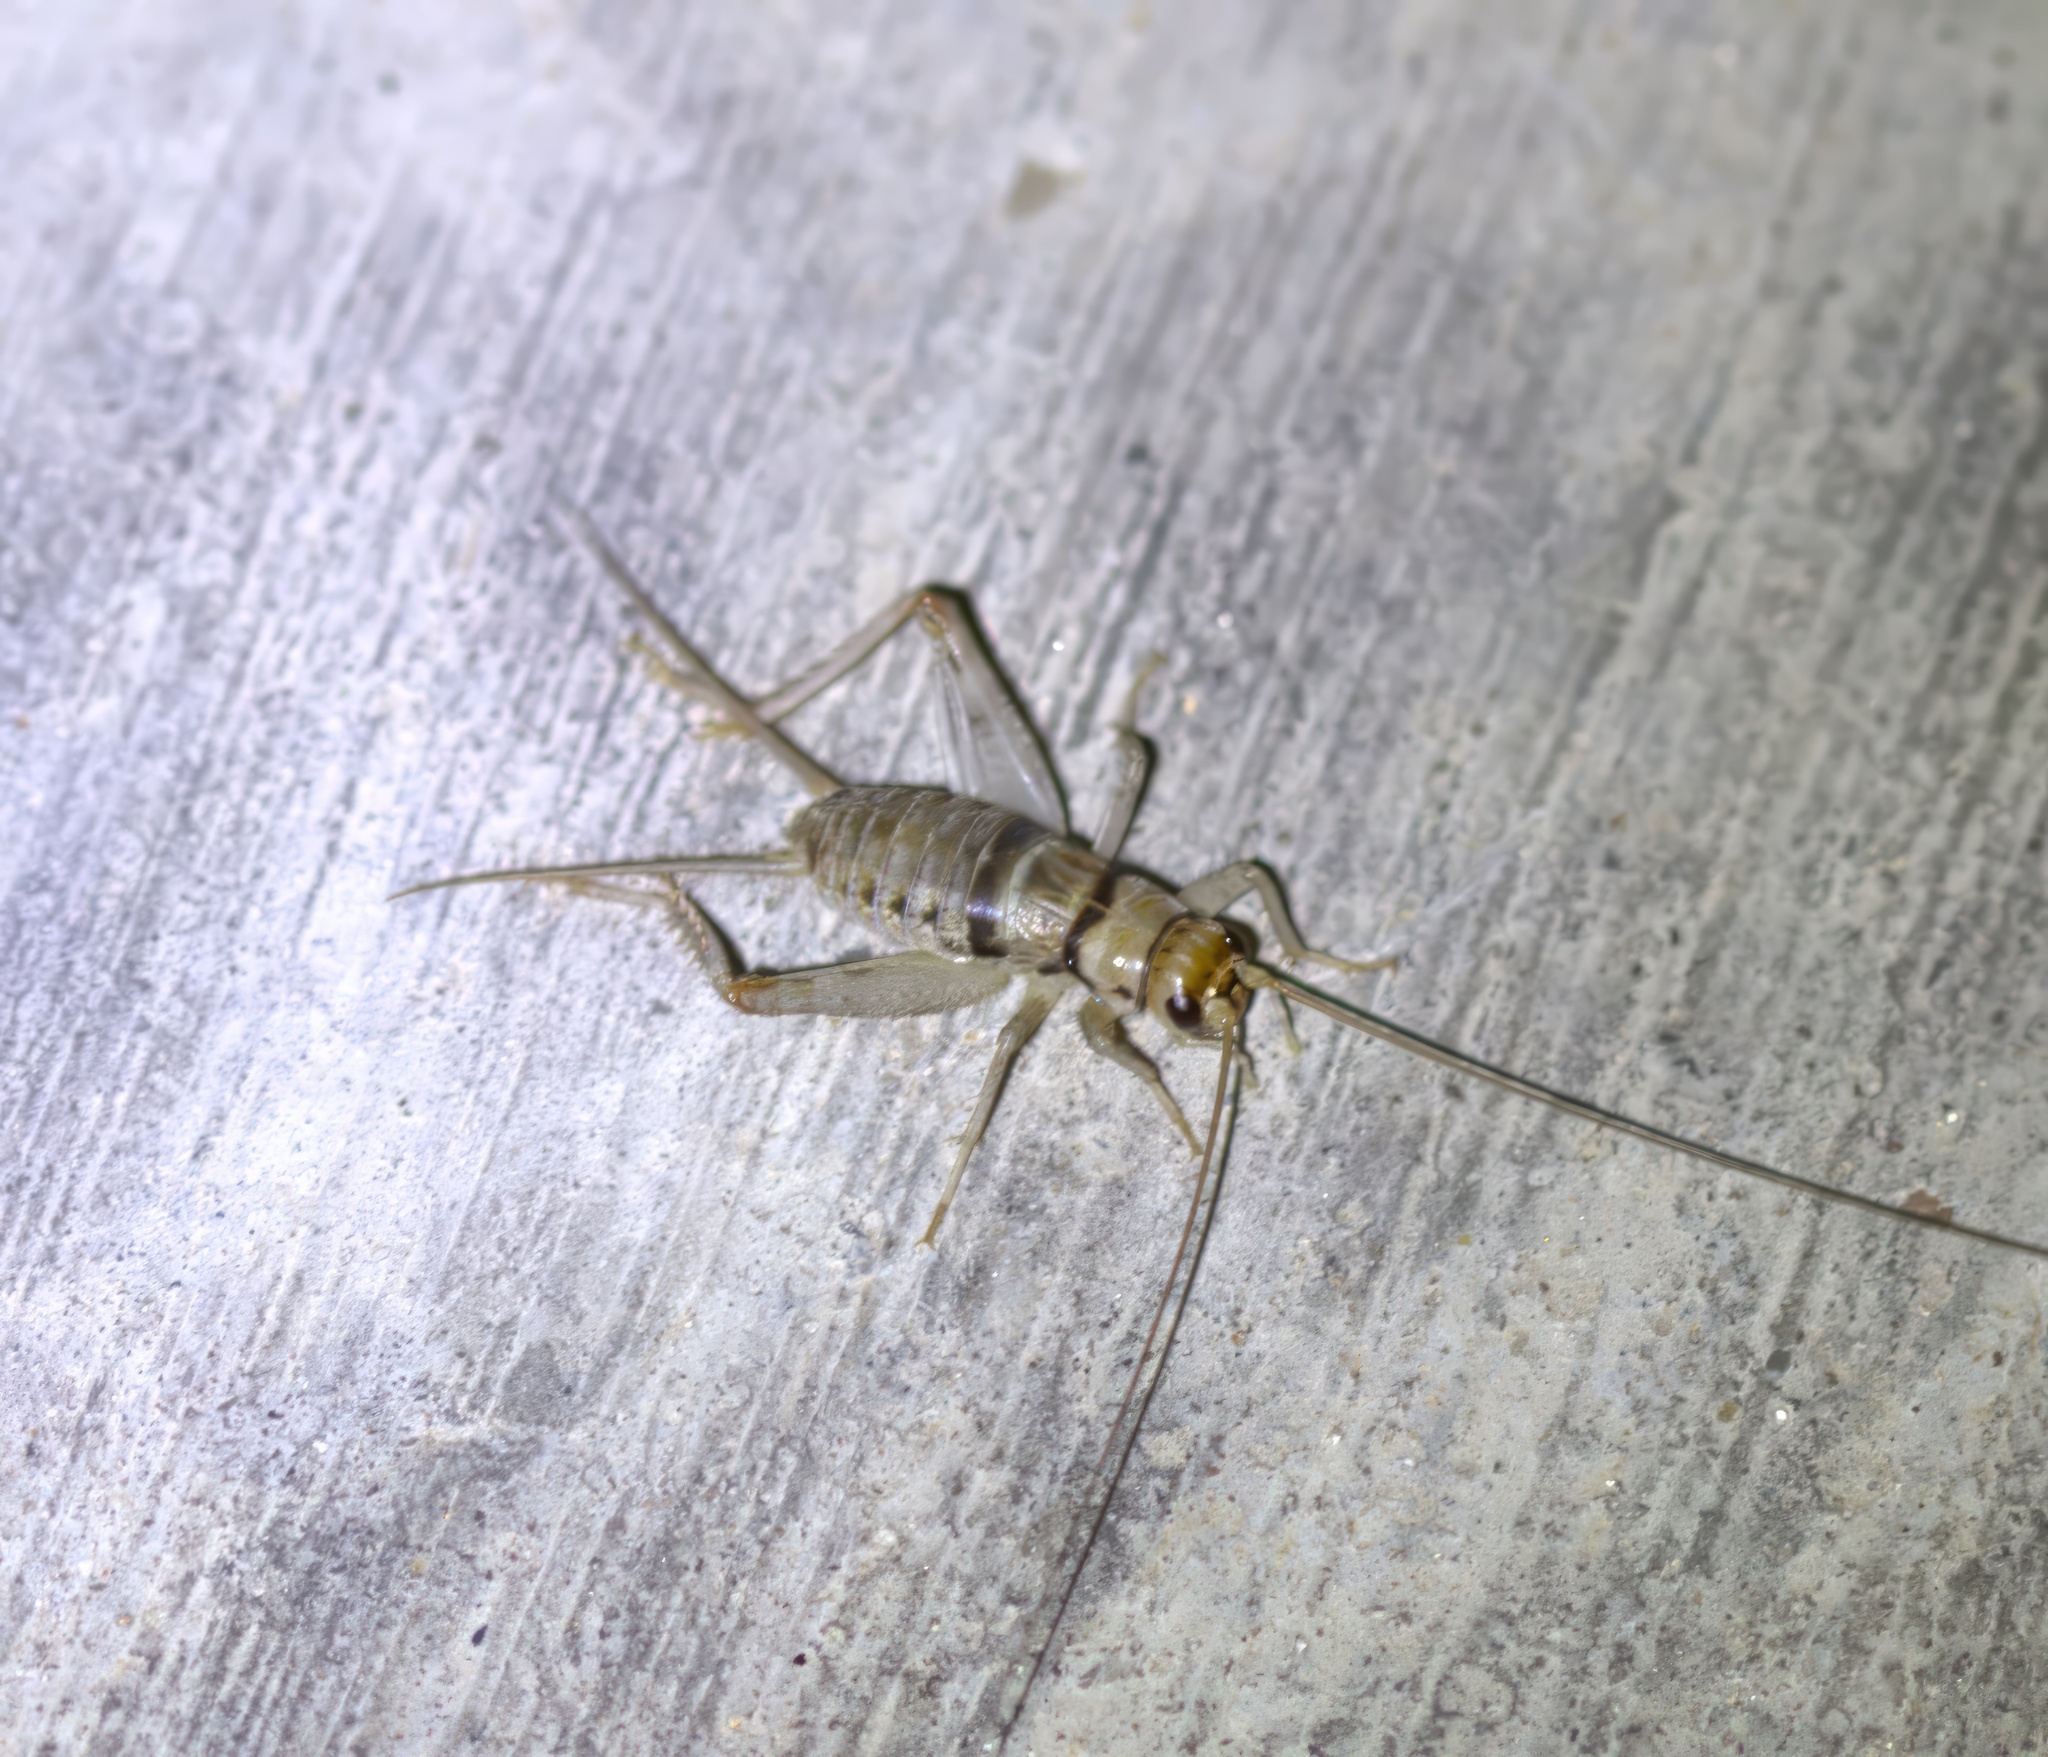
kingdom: Animalia
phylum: Arthropoda
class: Insecta
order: Orthoptera
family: Gryllidae
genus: Gryllodes
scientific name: Gryllodes sigillatus
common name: Tropical house cricket
